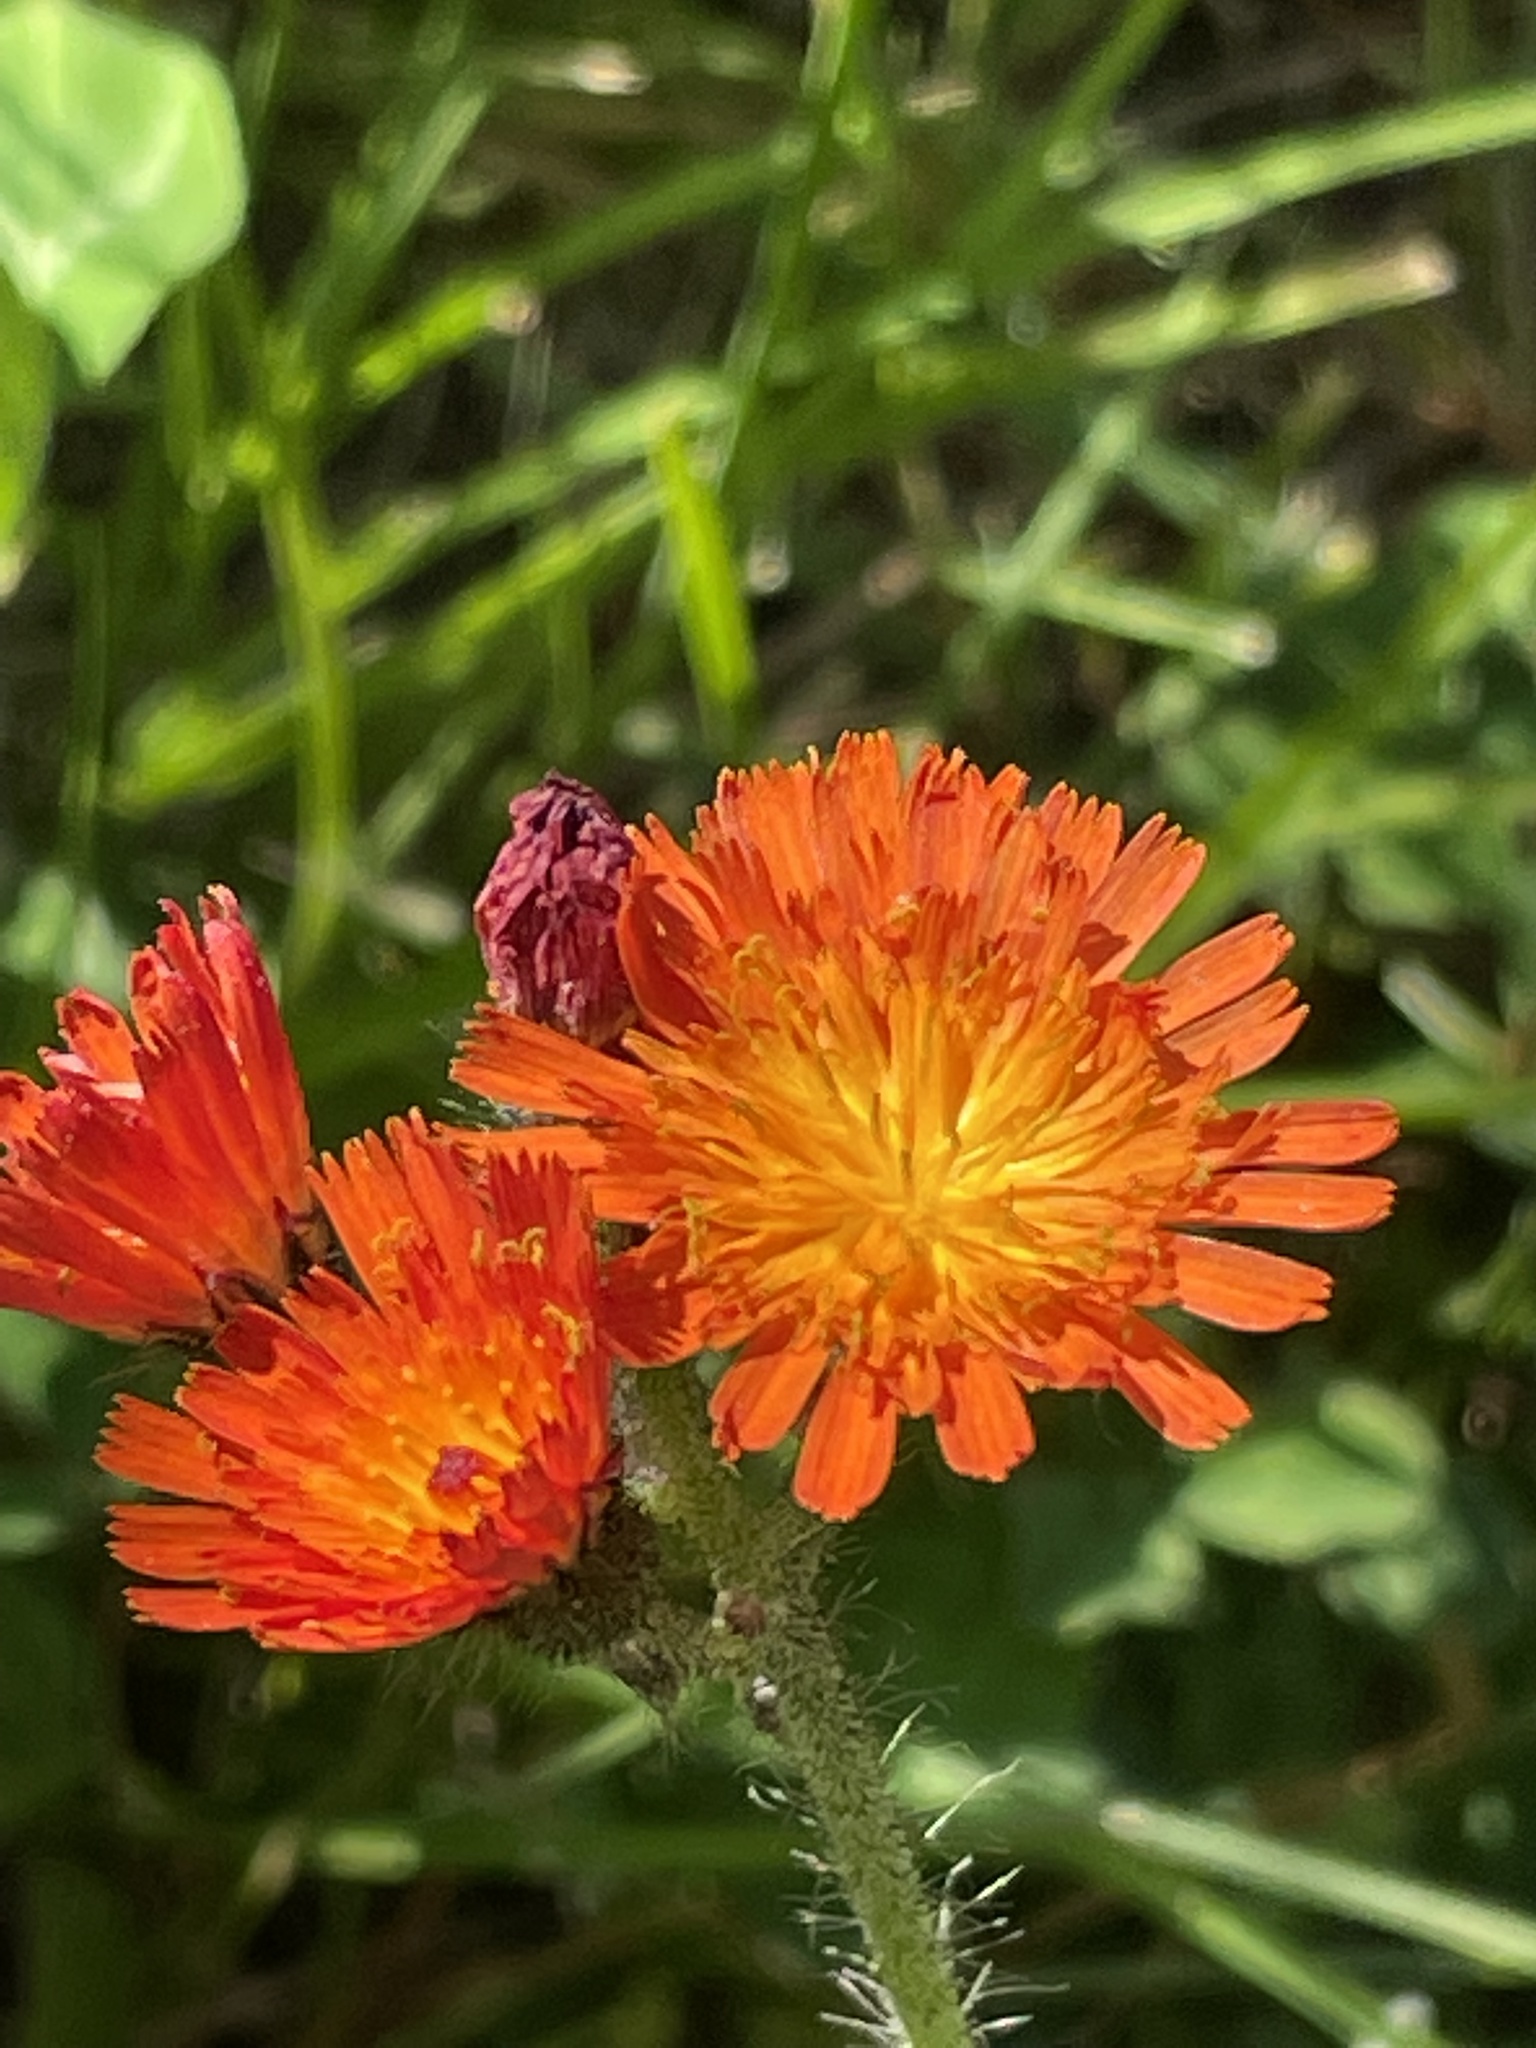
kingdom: Plantae
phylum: Tracheophyta
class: Magnoliopsida
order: Asterales
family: Asteraceae
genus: Pilosella
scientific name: Pilosella aurantiaca
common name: Fox-and-cubs
